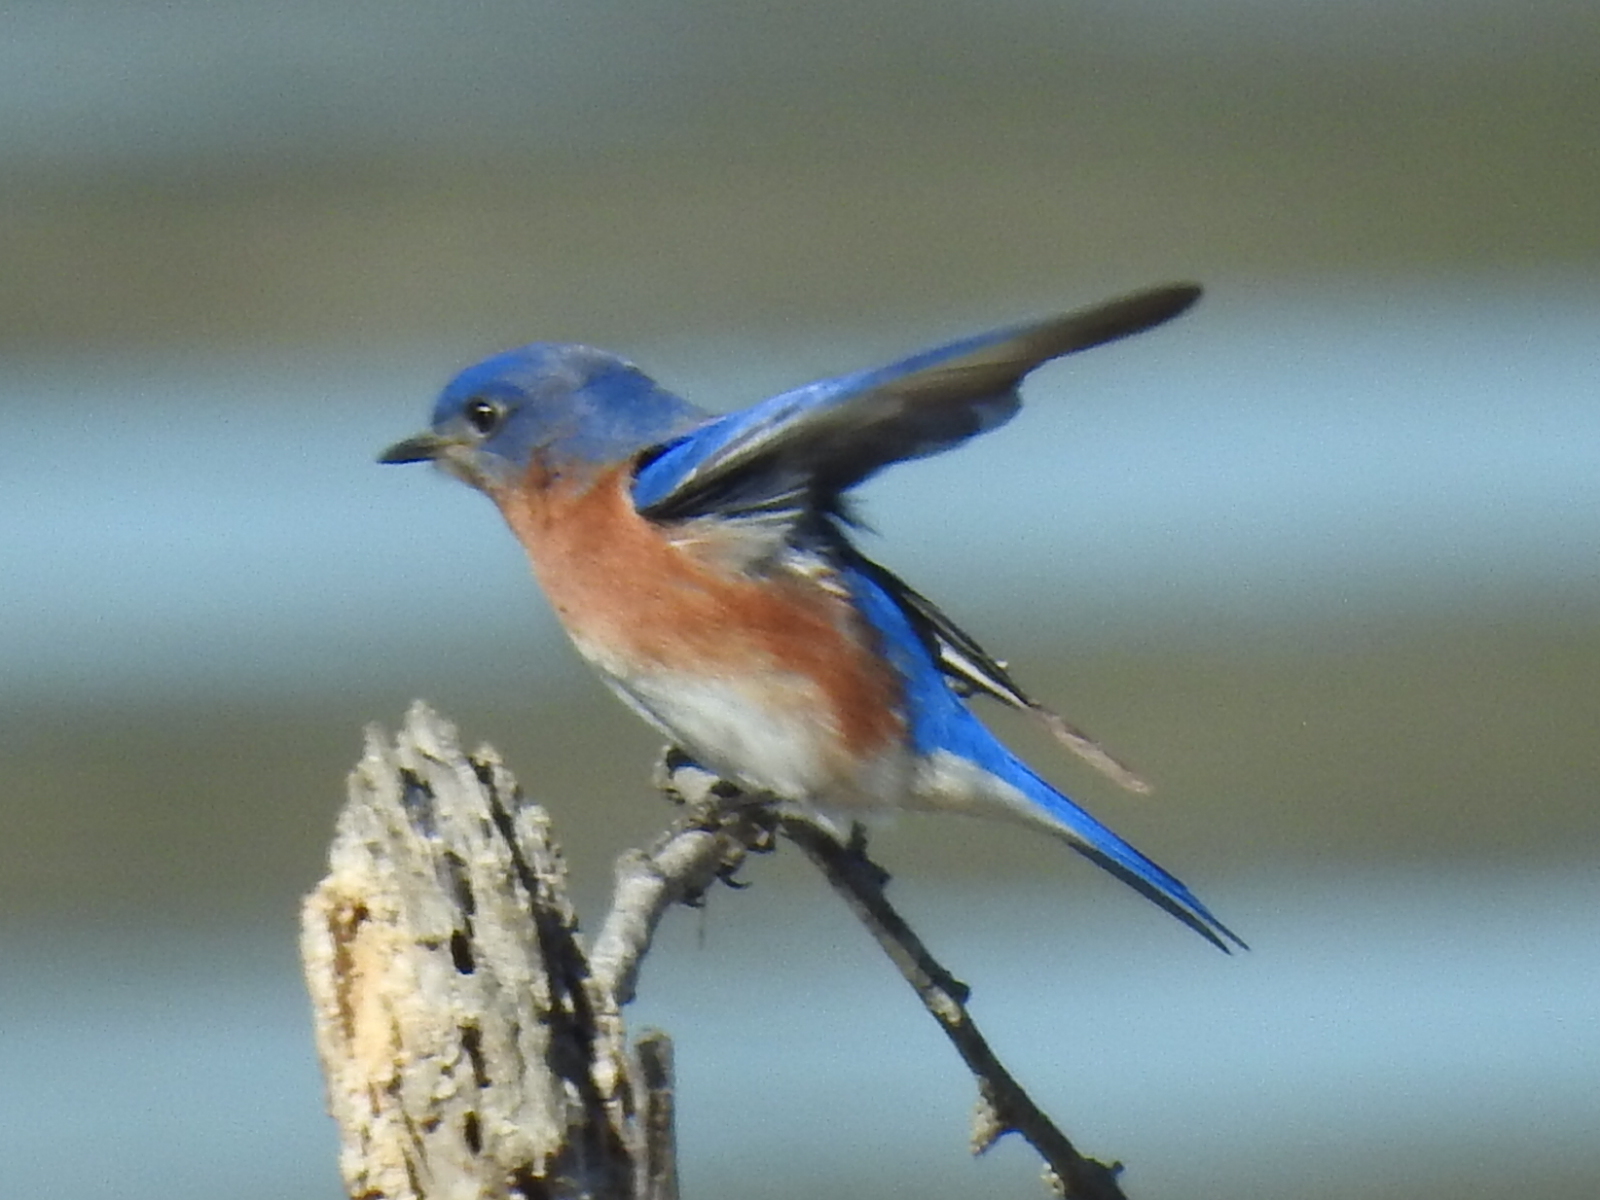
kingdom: Animalia
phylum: Chordata
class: Aves
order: Passeriformes
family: Turdidae
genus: Sialia
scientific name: Sialia sialis
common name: Eastern bluebird
